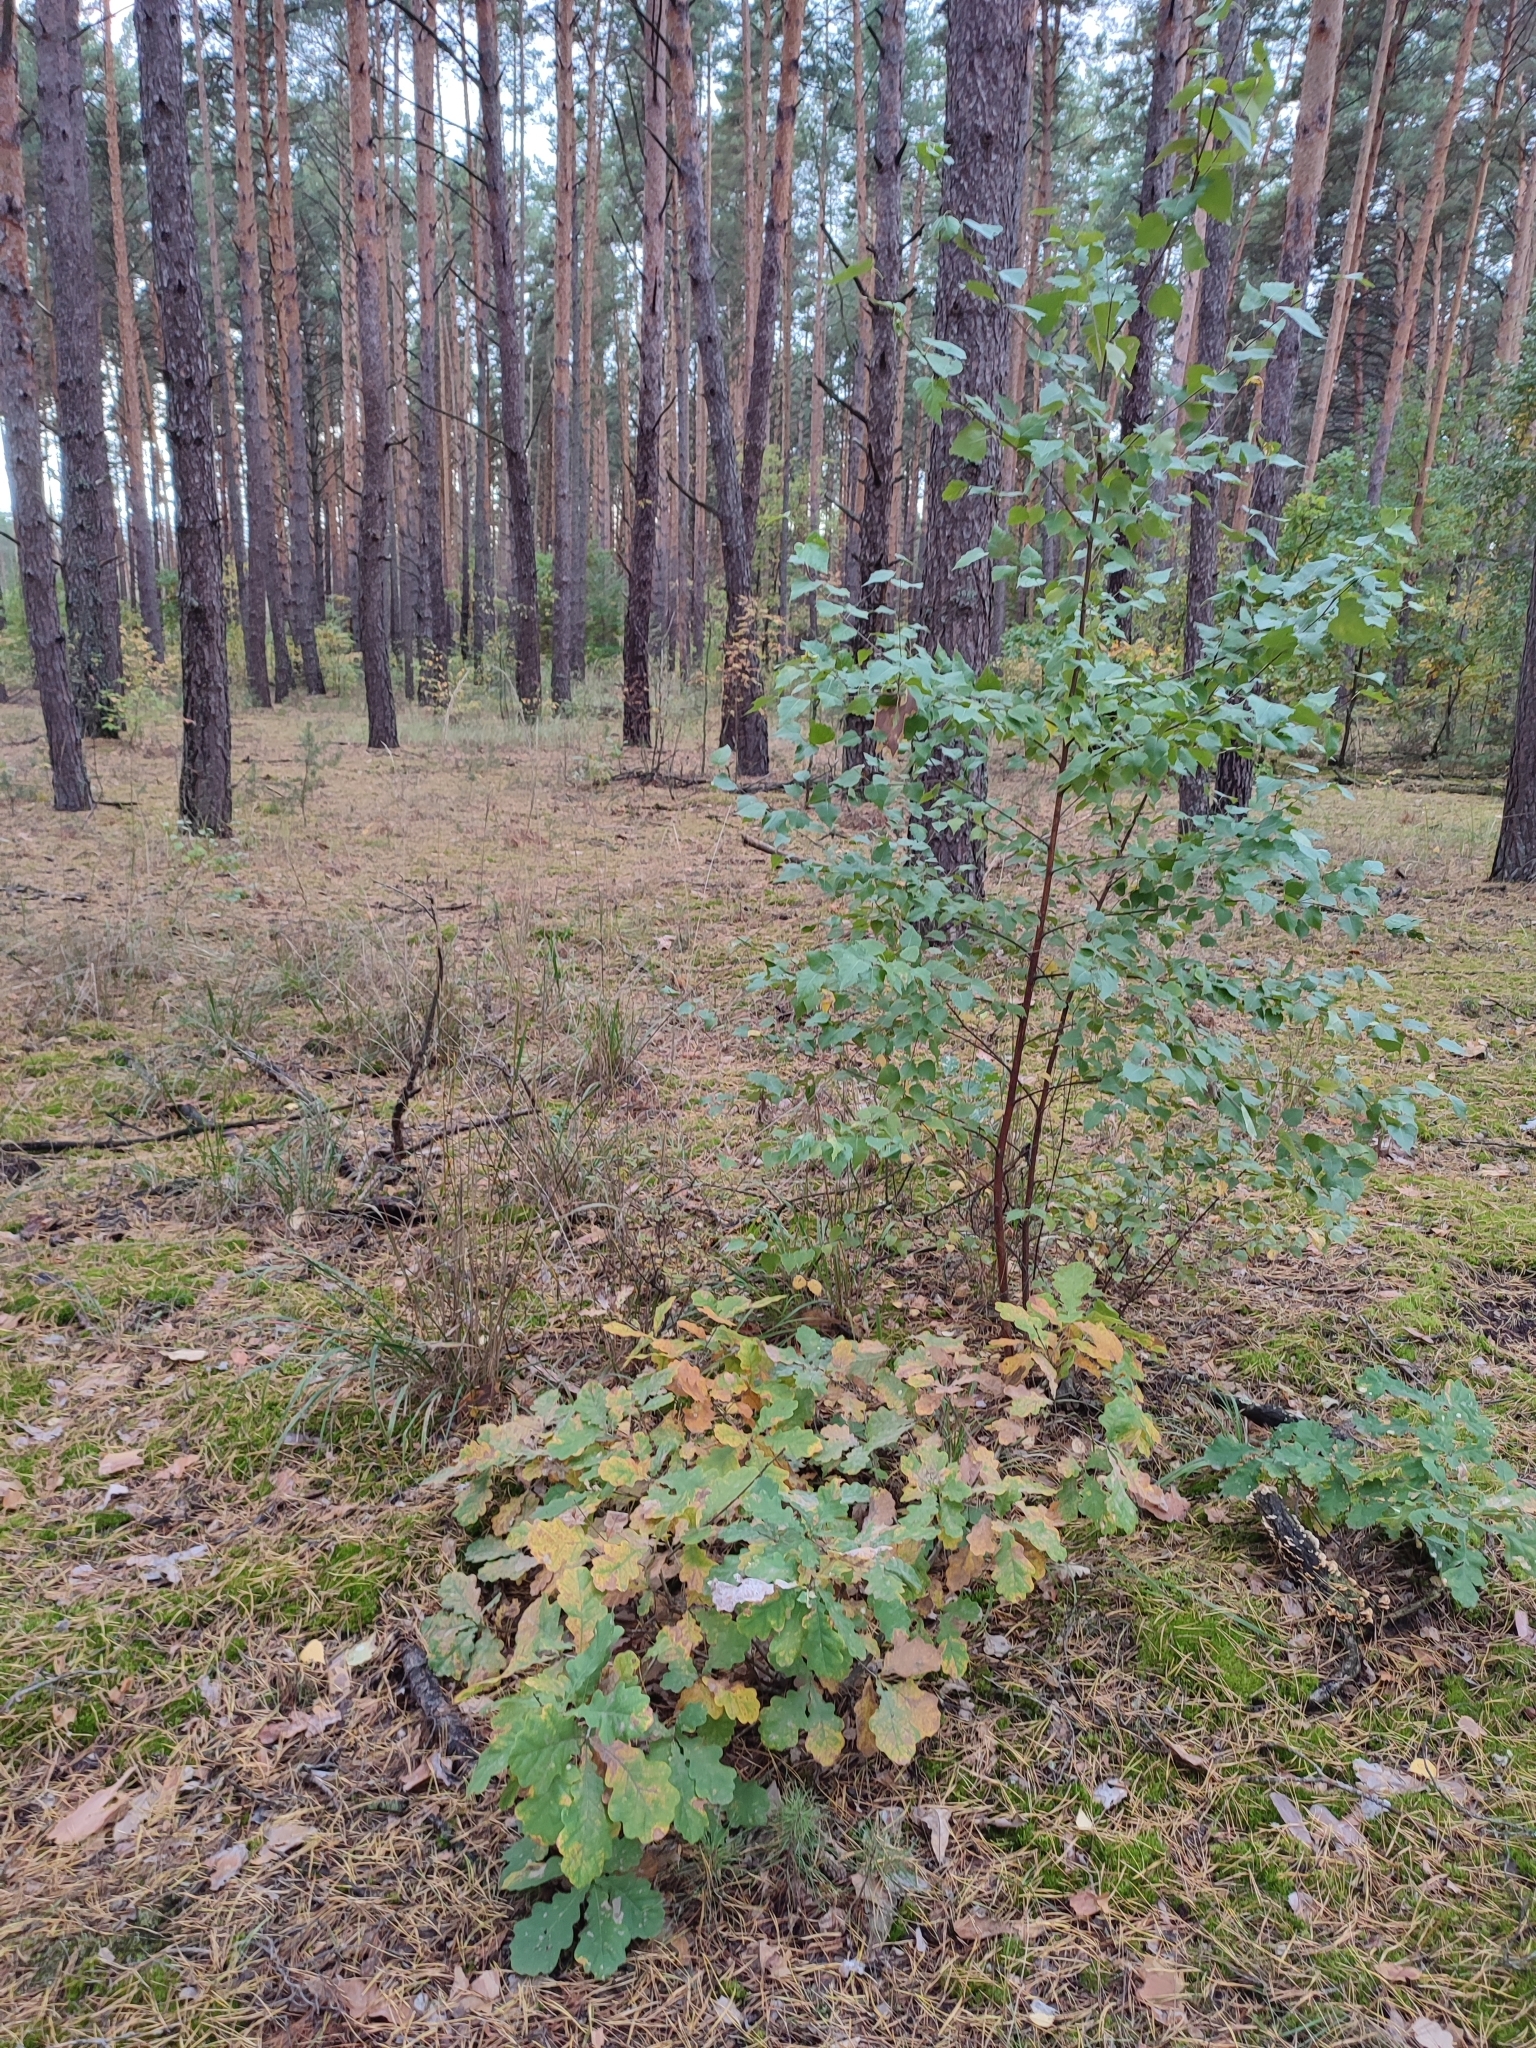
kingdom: Plantae
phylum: Tracheophyta
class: Magnoliopsida
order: Fagales
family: Fagaceae
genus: Quercus
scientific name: Quercus robur
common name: Pedunculate oak
